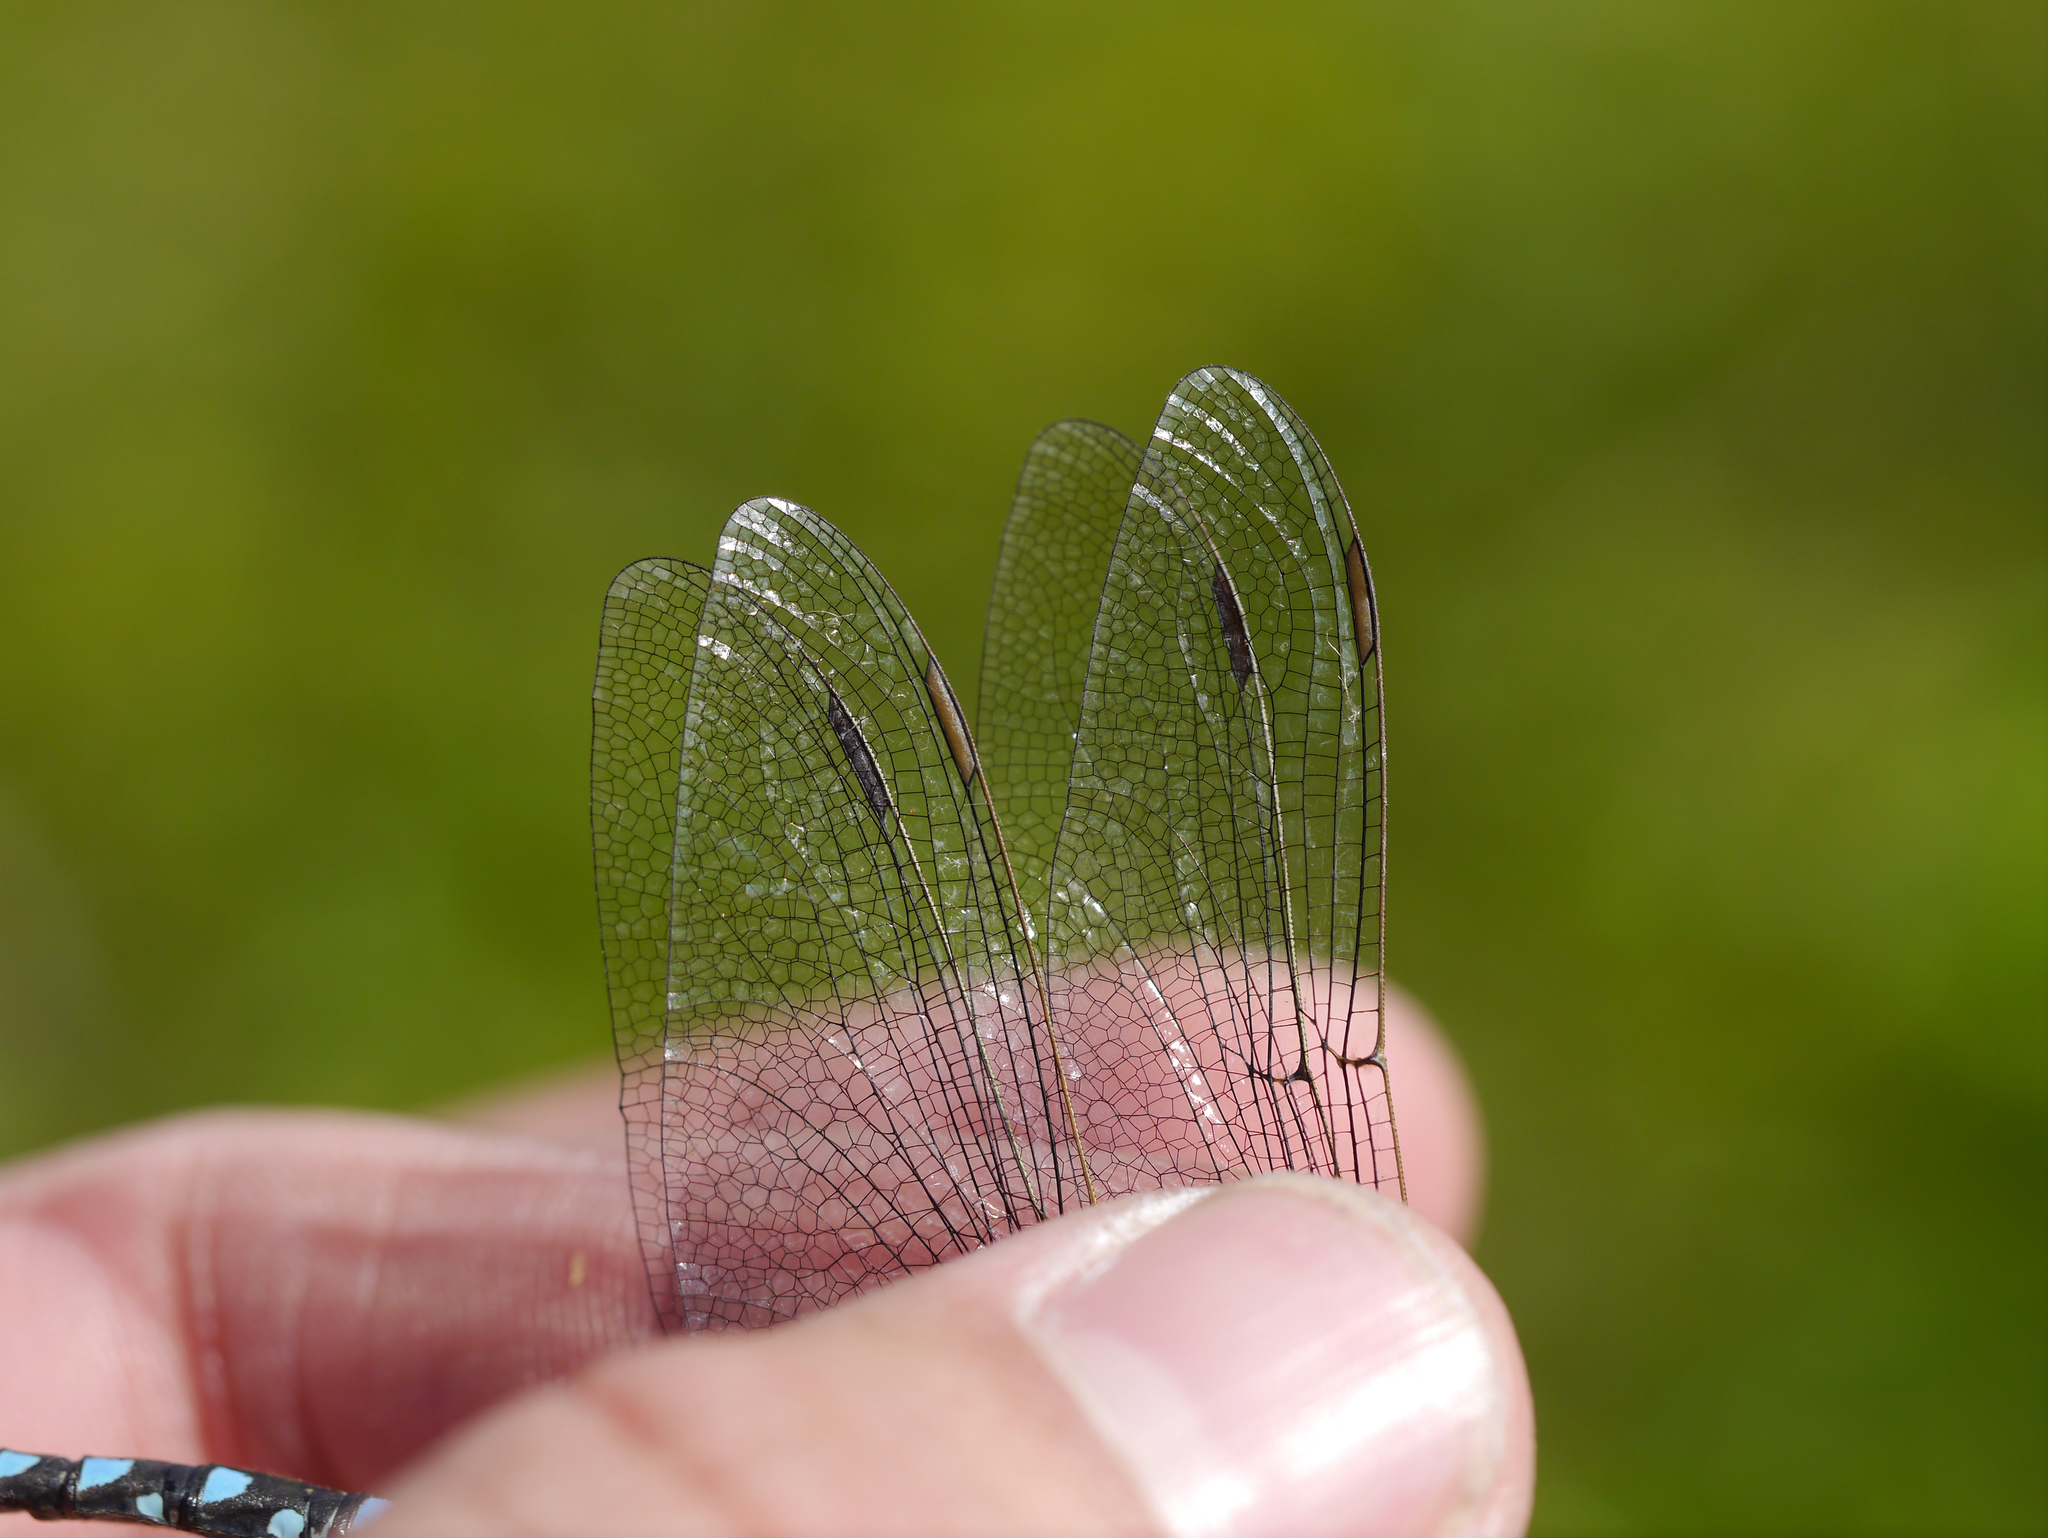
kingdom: Animalia
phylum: Arthropoda
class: Insecta
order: Odonata
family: Aeshnidae
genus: Aeshna
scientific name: Aeshna interrupta
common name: Variable darner
